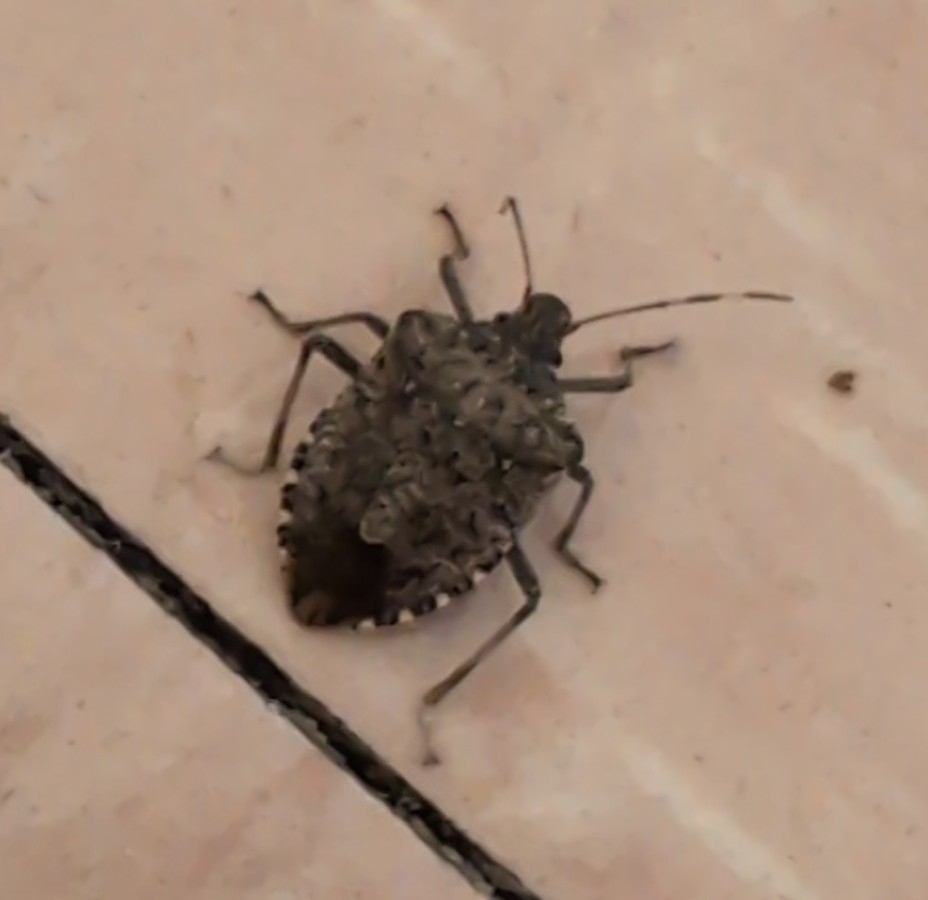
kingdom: Animalia
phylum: Arthropoda
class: Insecta
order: Hemiptera
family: Pentatomidae
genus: Halyomorpha
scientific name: Halyomorpha halys
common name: Brown marmorated stink bug
